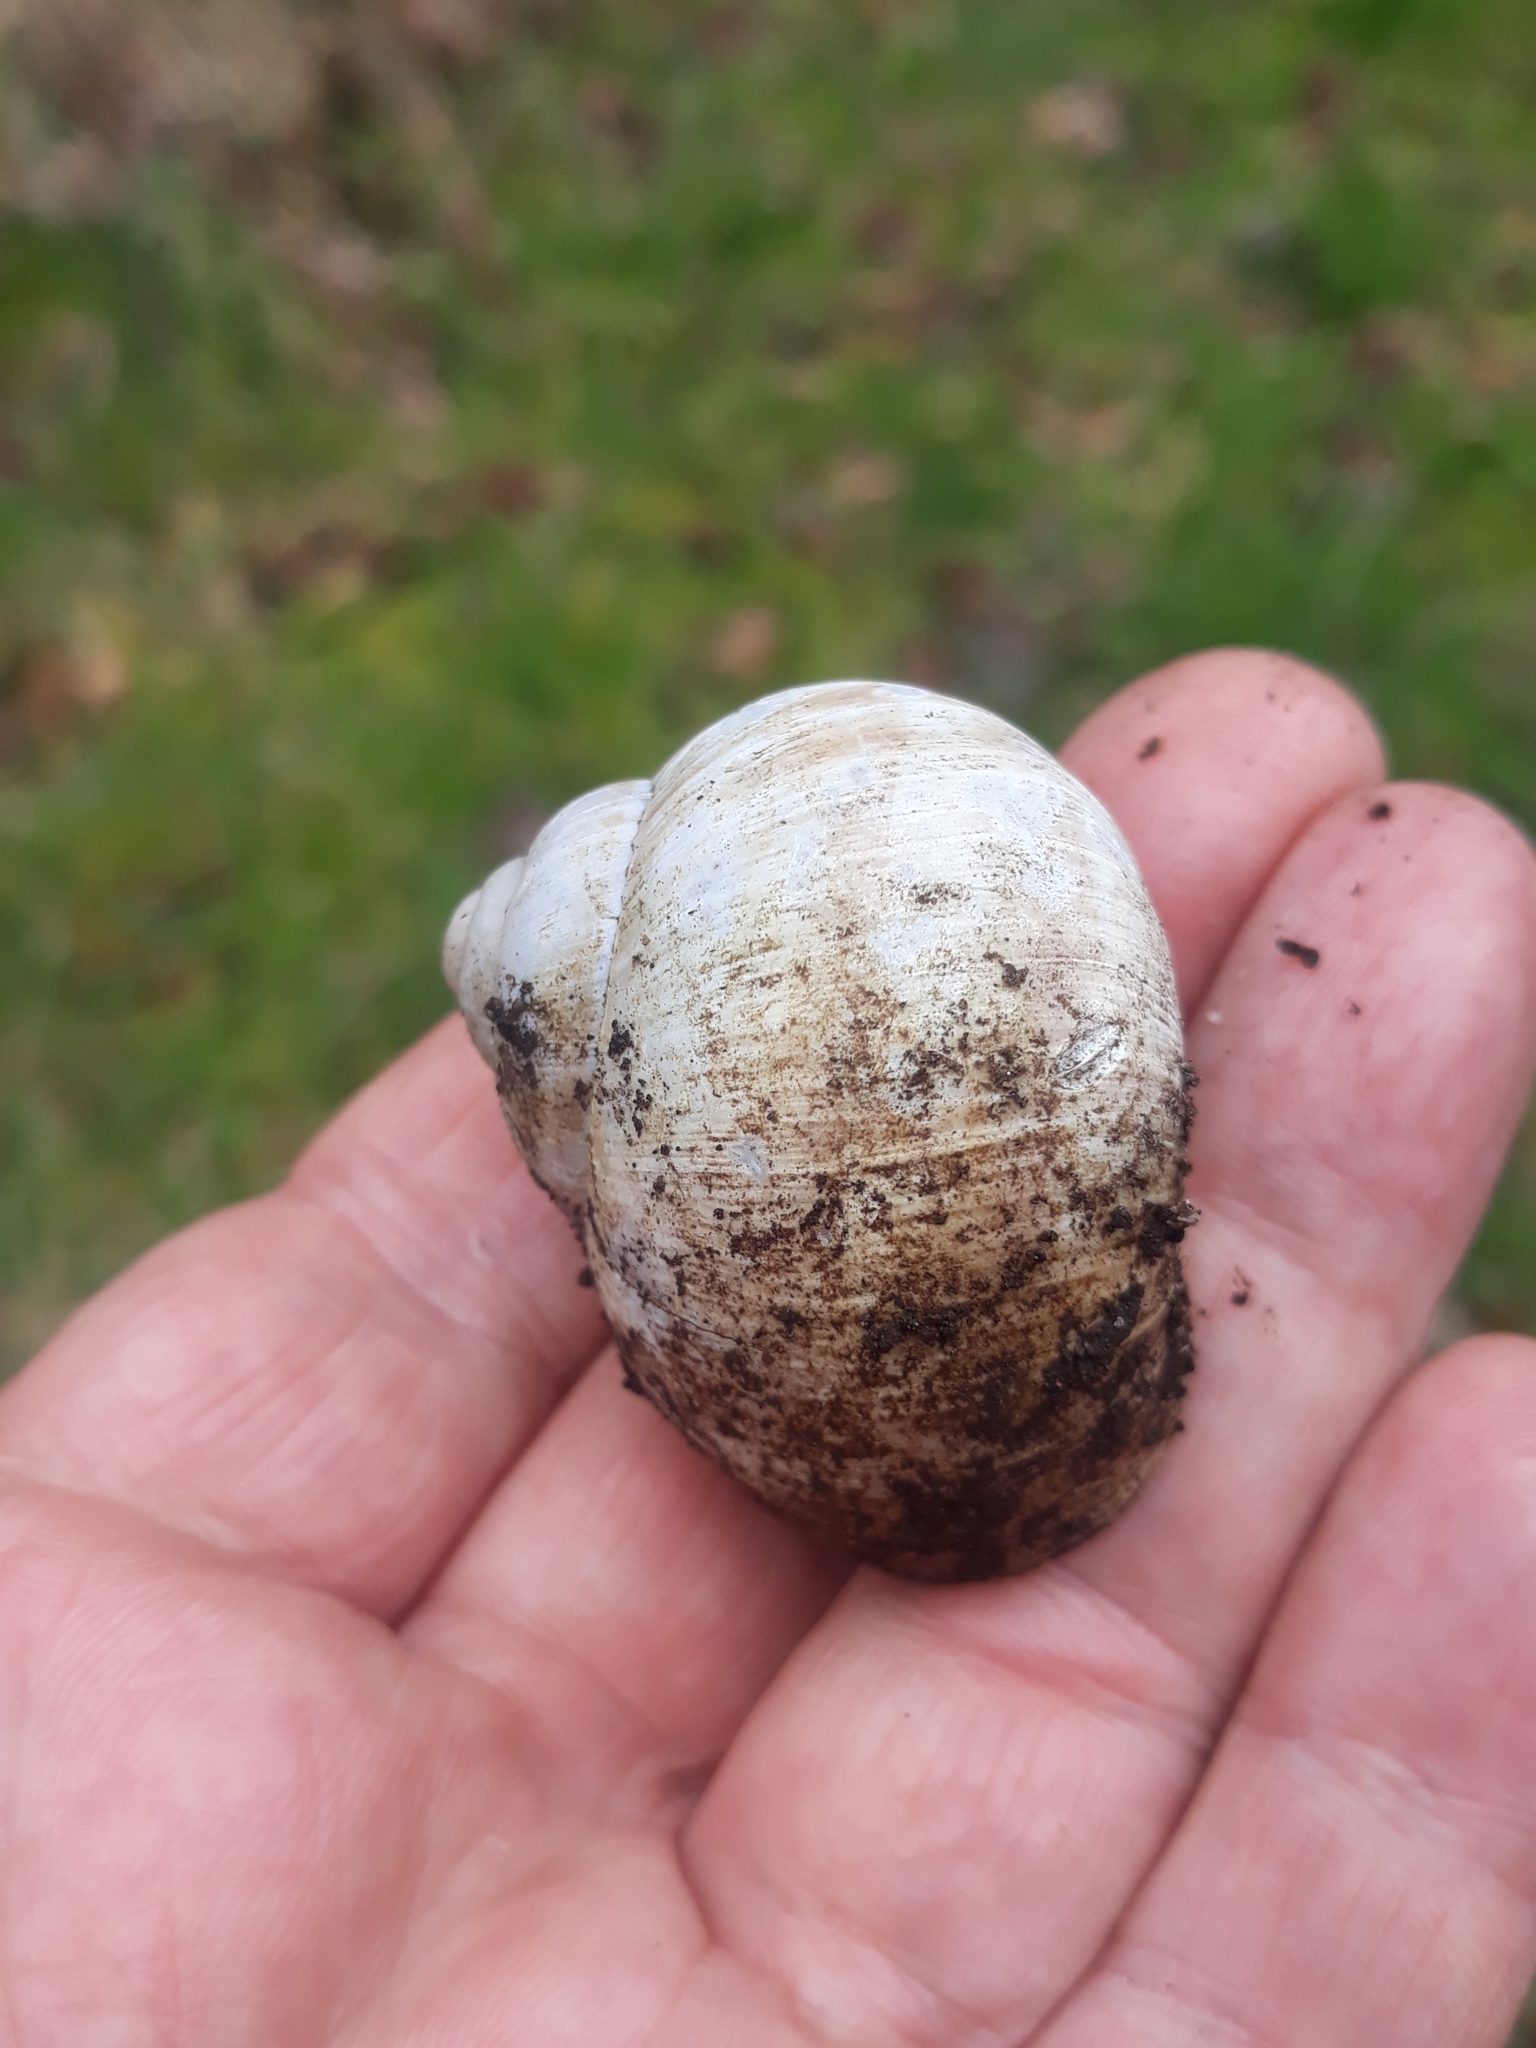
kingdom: Animalia
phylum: Mollusca
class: Gastropoda
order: Stylommatophora
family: Helicidae
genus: Helix
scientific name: Helix pomatia
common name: Roman snail
